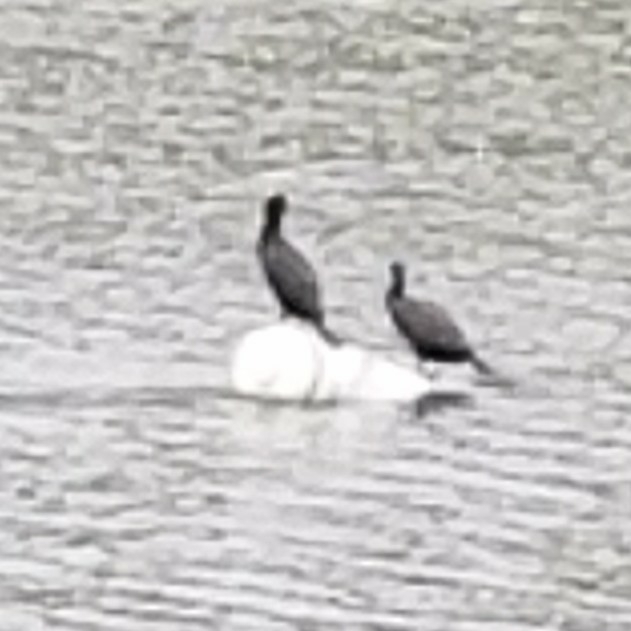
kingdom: Animalia
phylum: Chordata
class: Aves
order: Suliformes
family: Phalacrocoracidae
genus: Phalacrocorax
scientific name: Phalacrocorax auritus
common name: Double-crested cormorant
